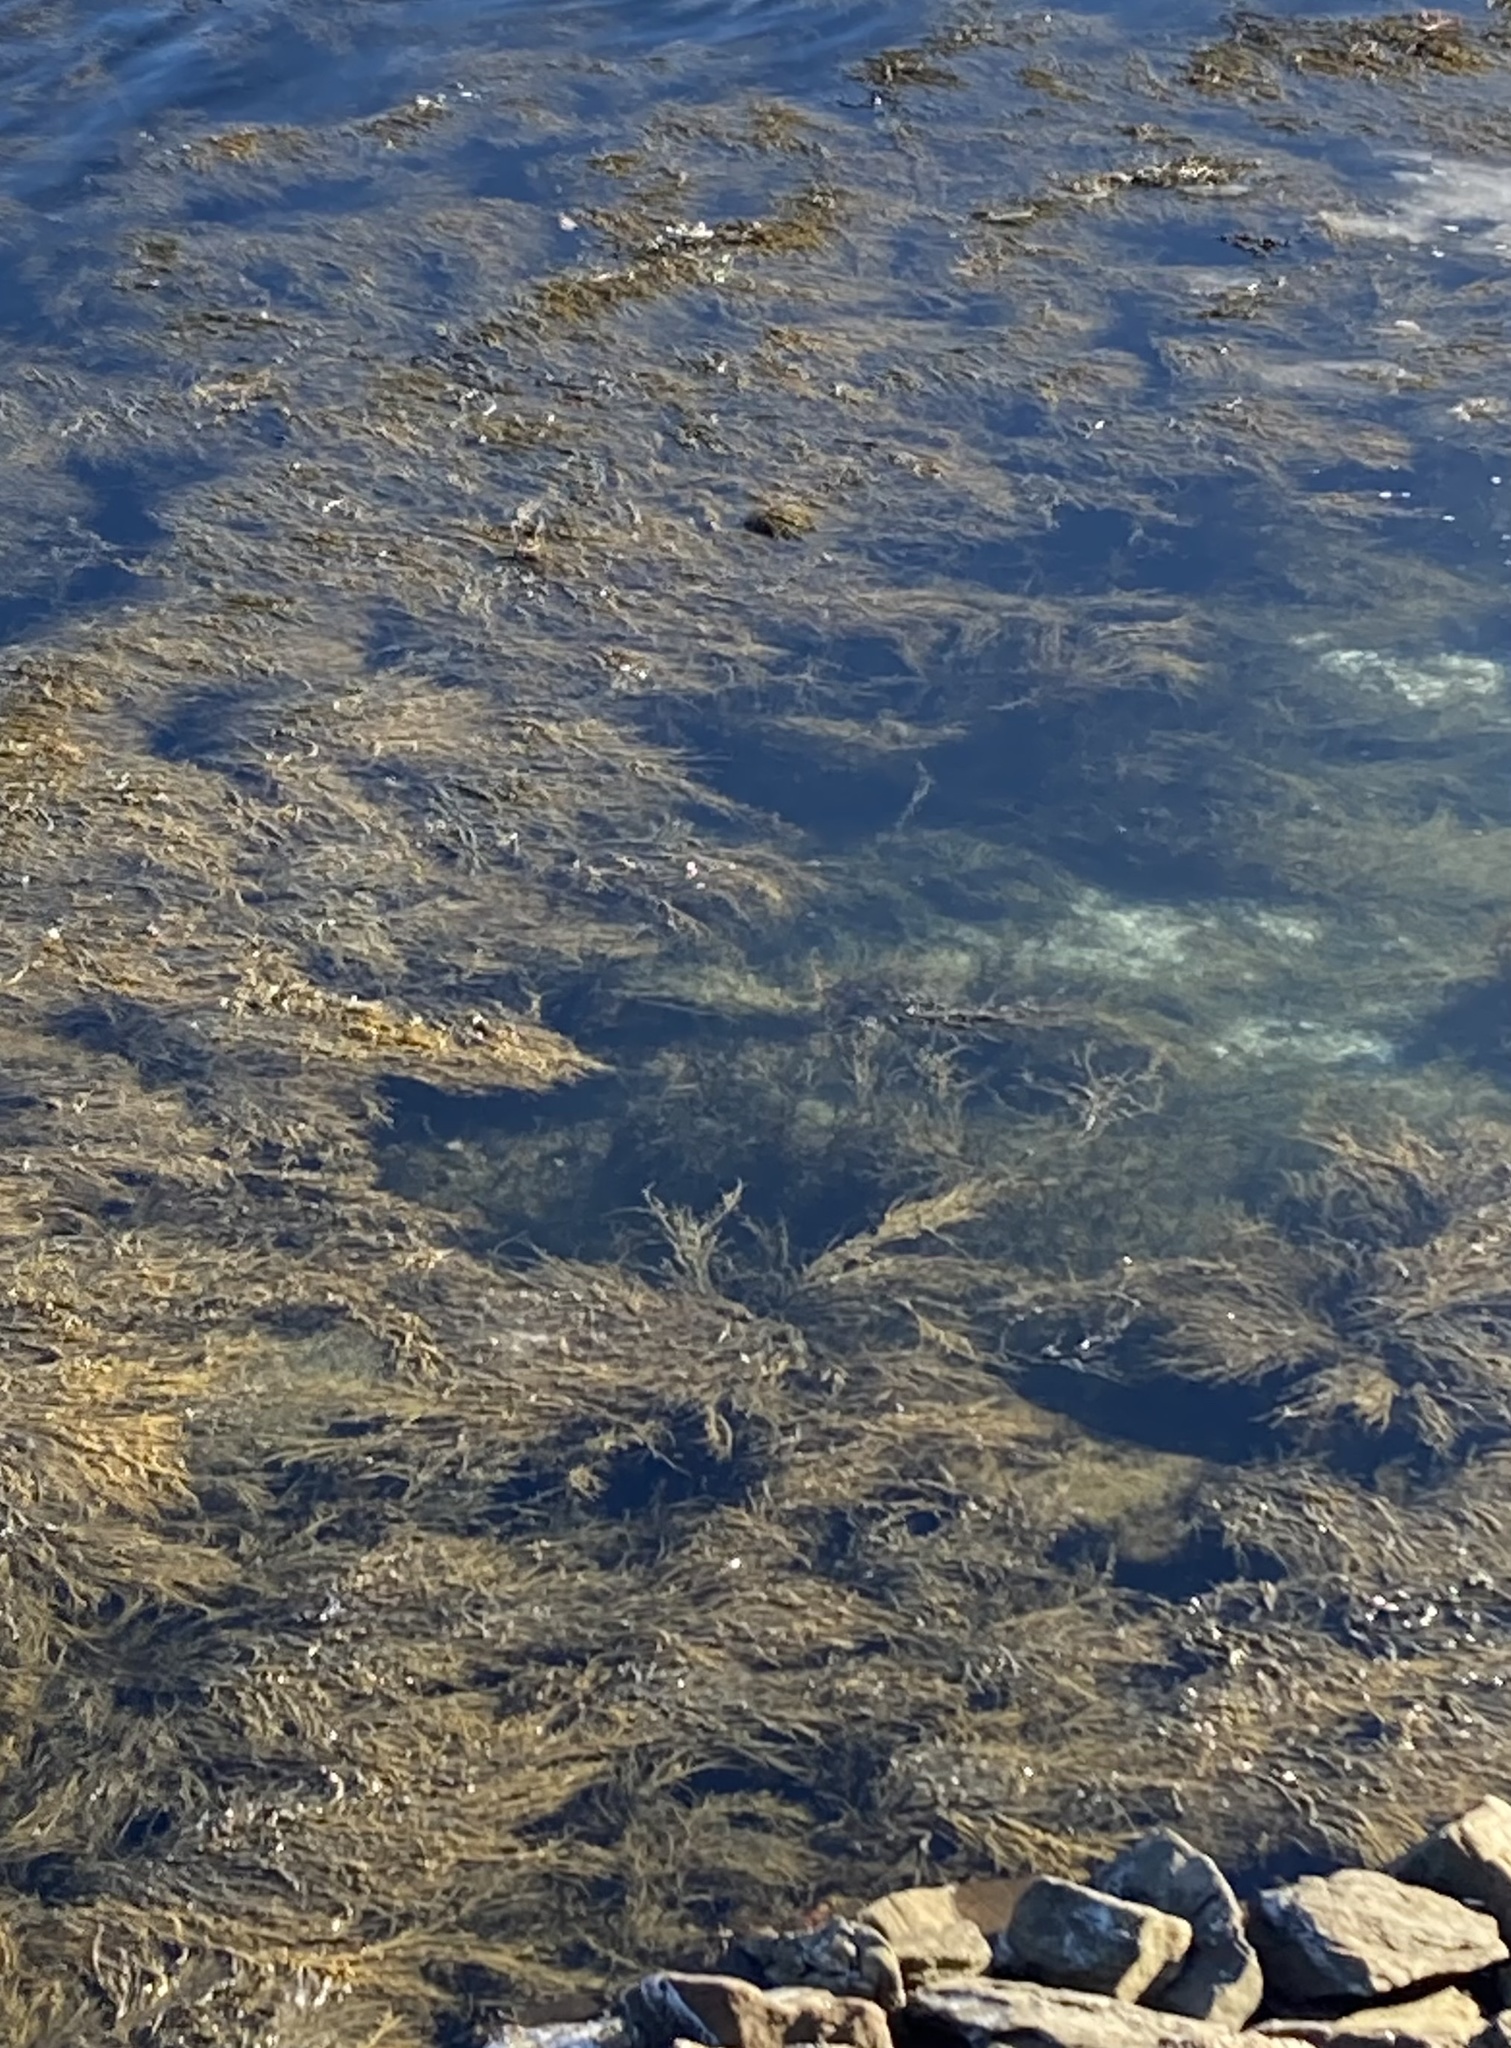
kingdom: Chromista
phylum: Ochrophyta
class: Phaeophyceae
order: Fucales
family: Fucaceae
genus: Ascophyllum
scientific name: Ascophyllum nodosum
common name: Knotted wrack
